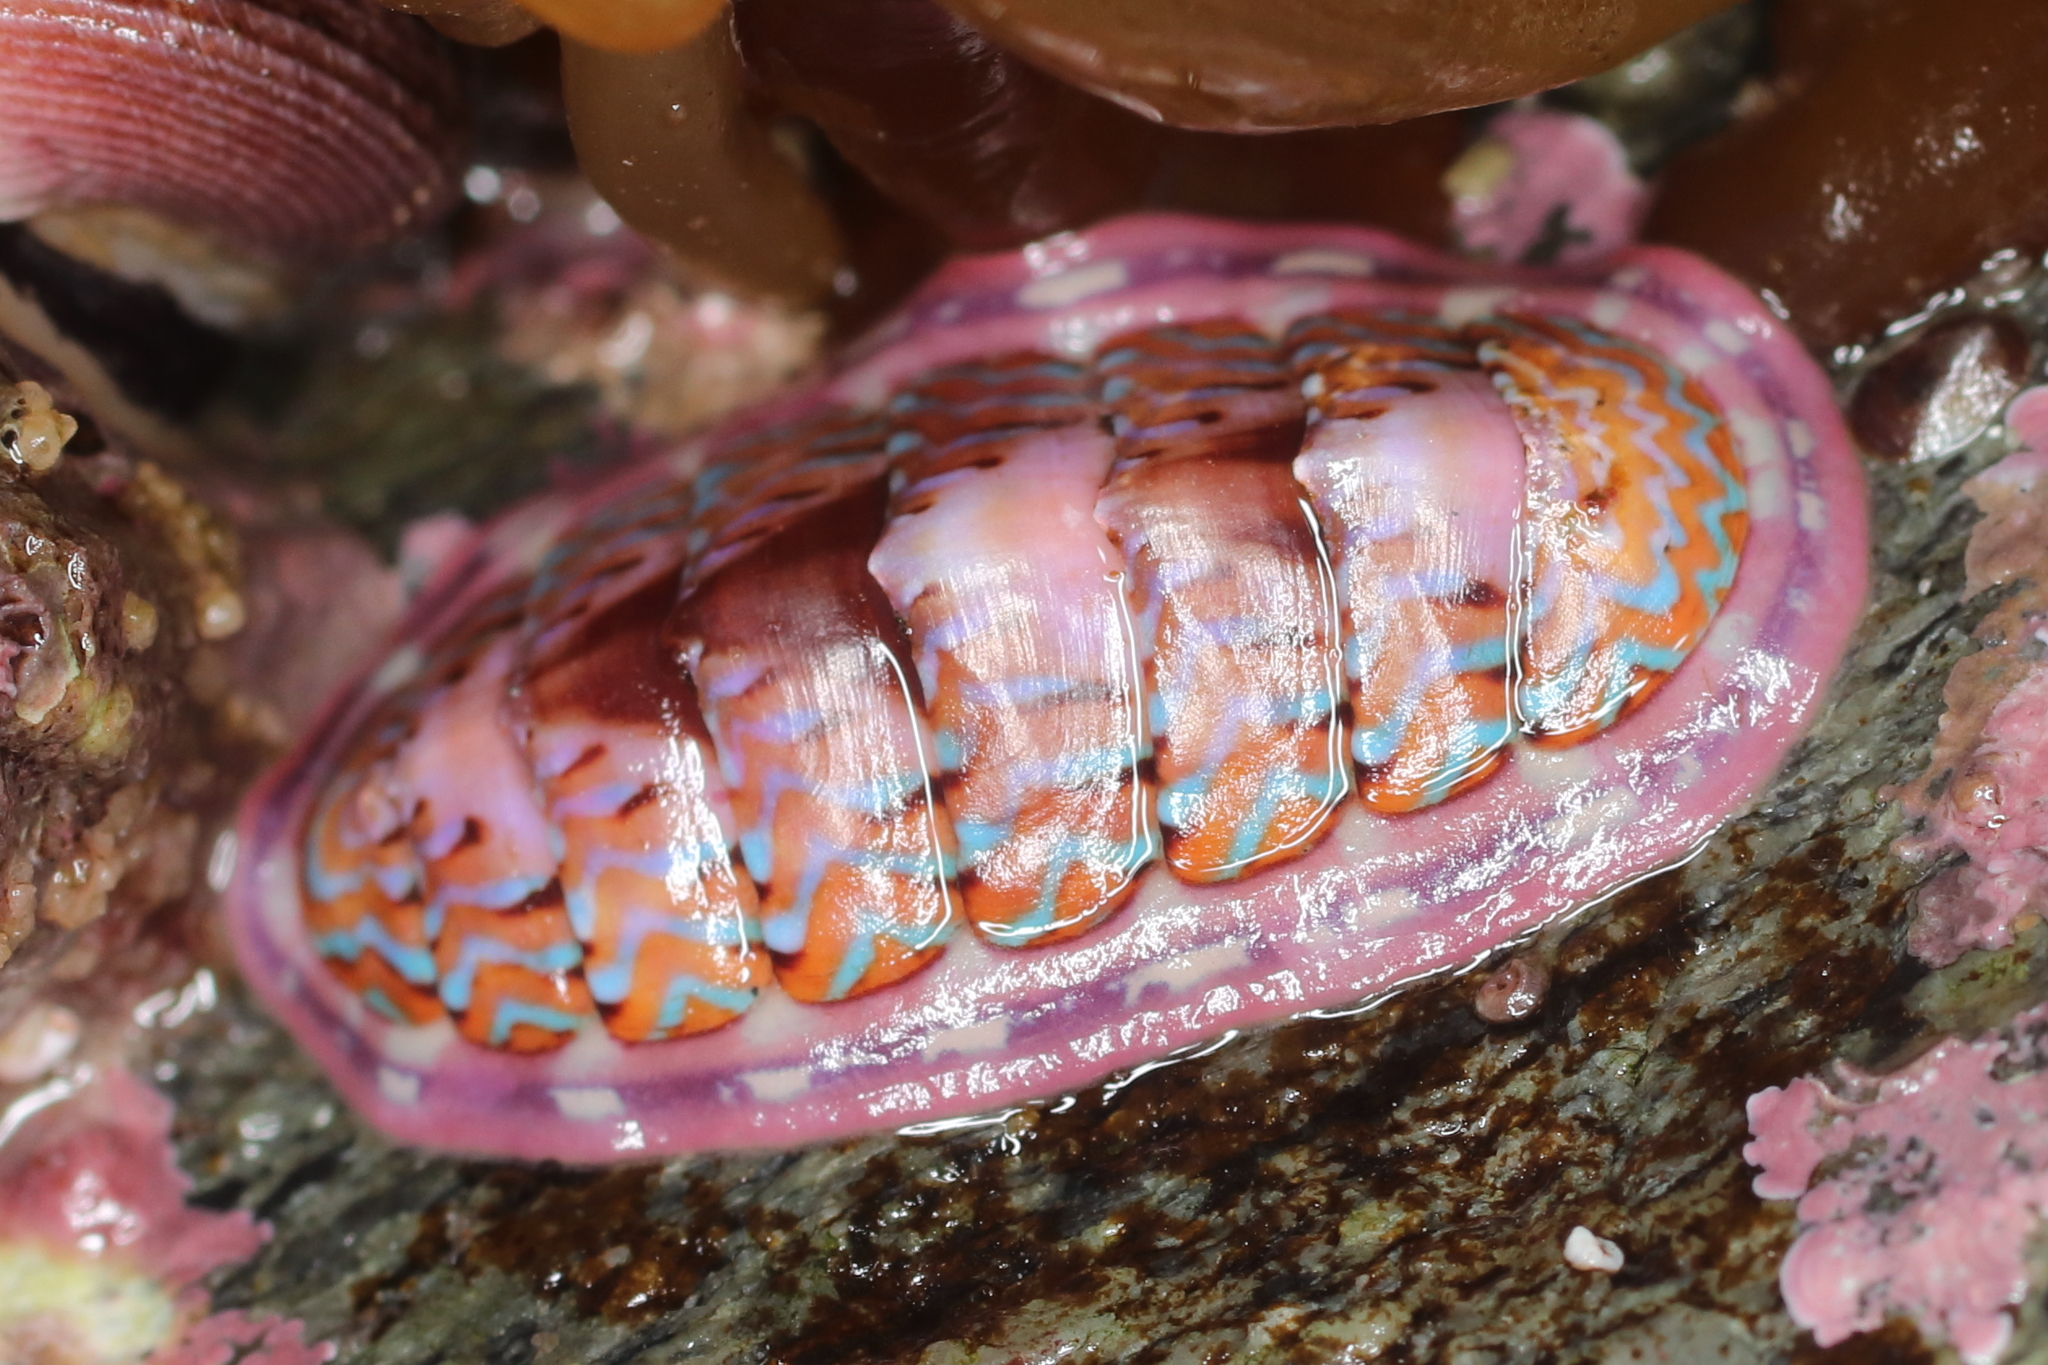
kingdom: Animalia
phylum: Mollusca
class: Polyplacophora
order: Chitonida
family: Tonicellidae
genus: Tonicella
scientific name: Tonicella undocaerulea
